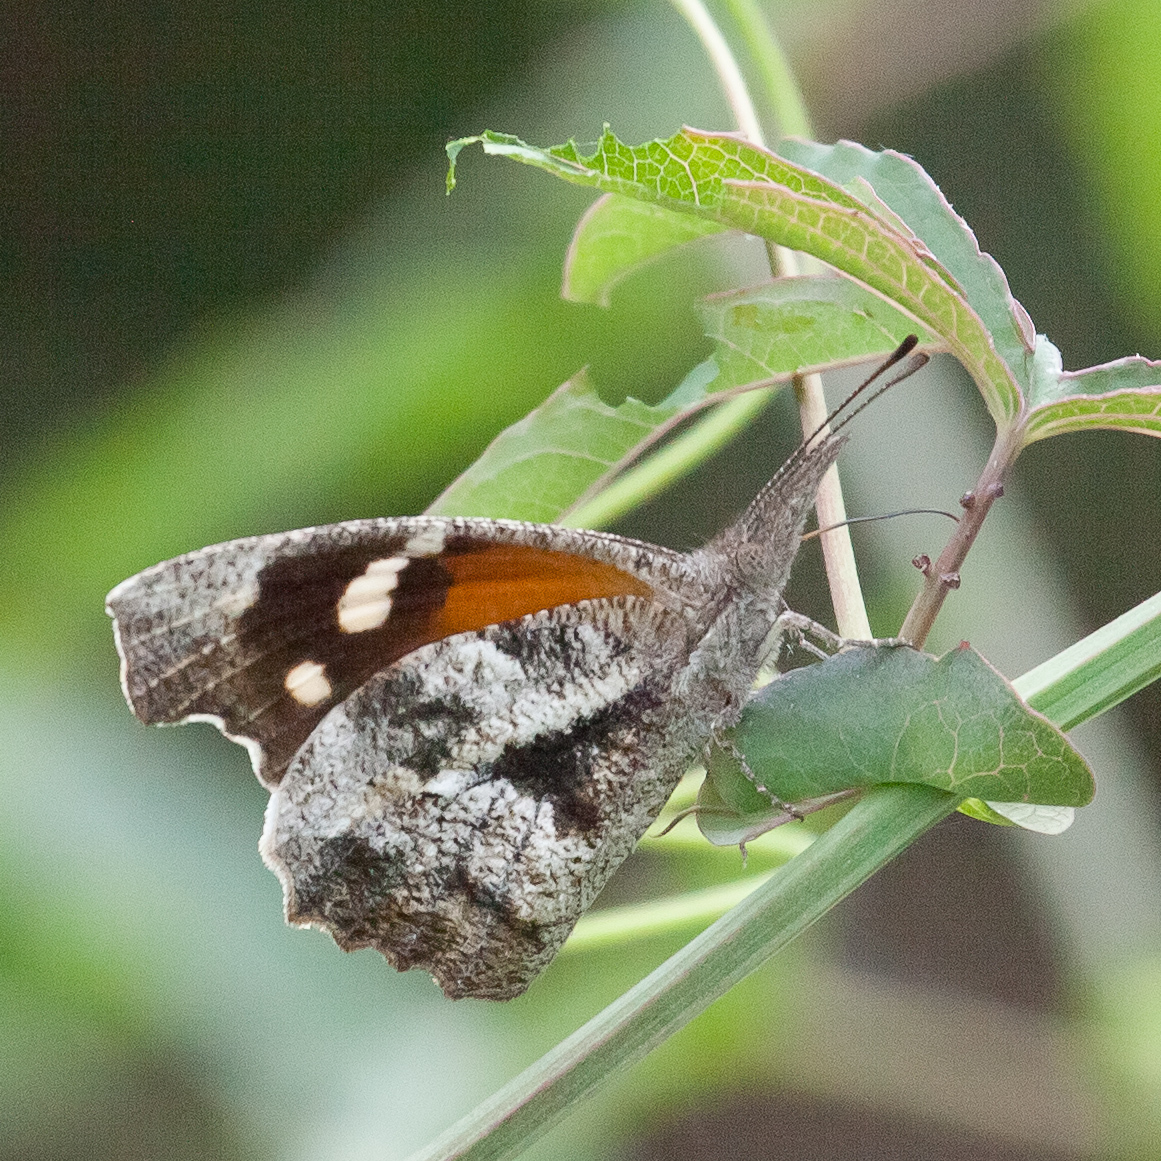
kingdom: Animalia
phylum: Arthropoda
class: Insecta
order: Lepidoptera
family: Nymphalidae
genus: Libytheana
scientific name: Libytheana carinenta
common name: American snout
